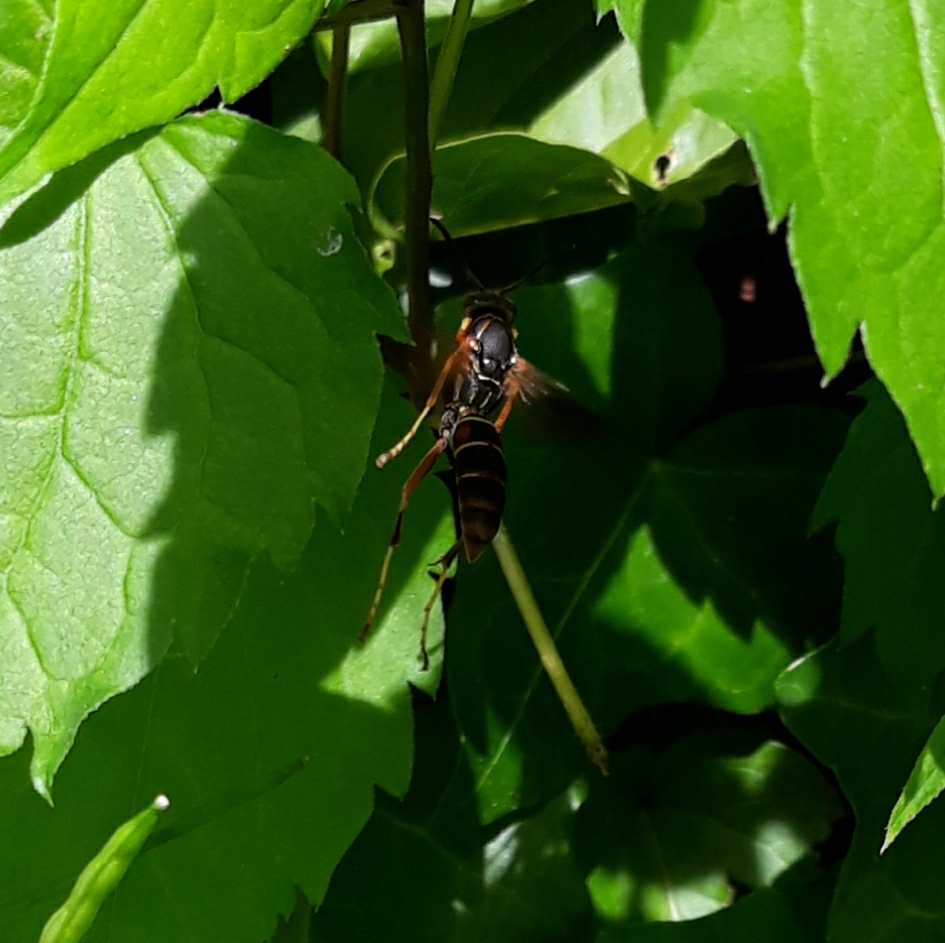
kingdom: Animalia
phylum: Arthropoda
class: Insecta
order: Hymenoptera
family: Eumenidae
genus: Polistes
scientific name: Polistes fuscatus
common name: Dark paper wasp
